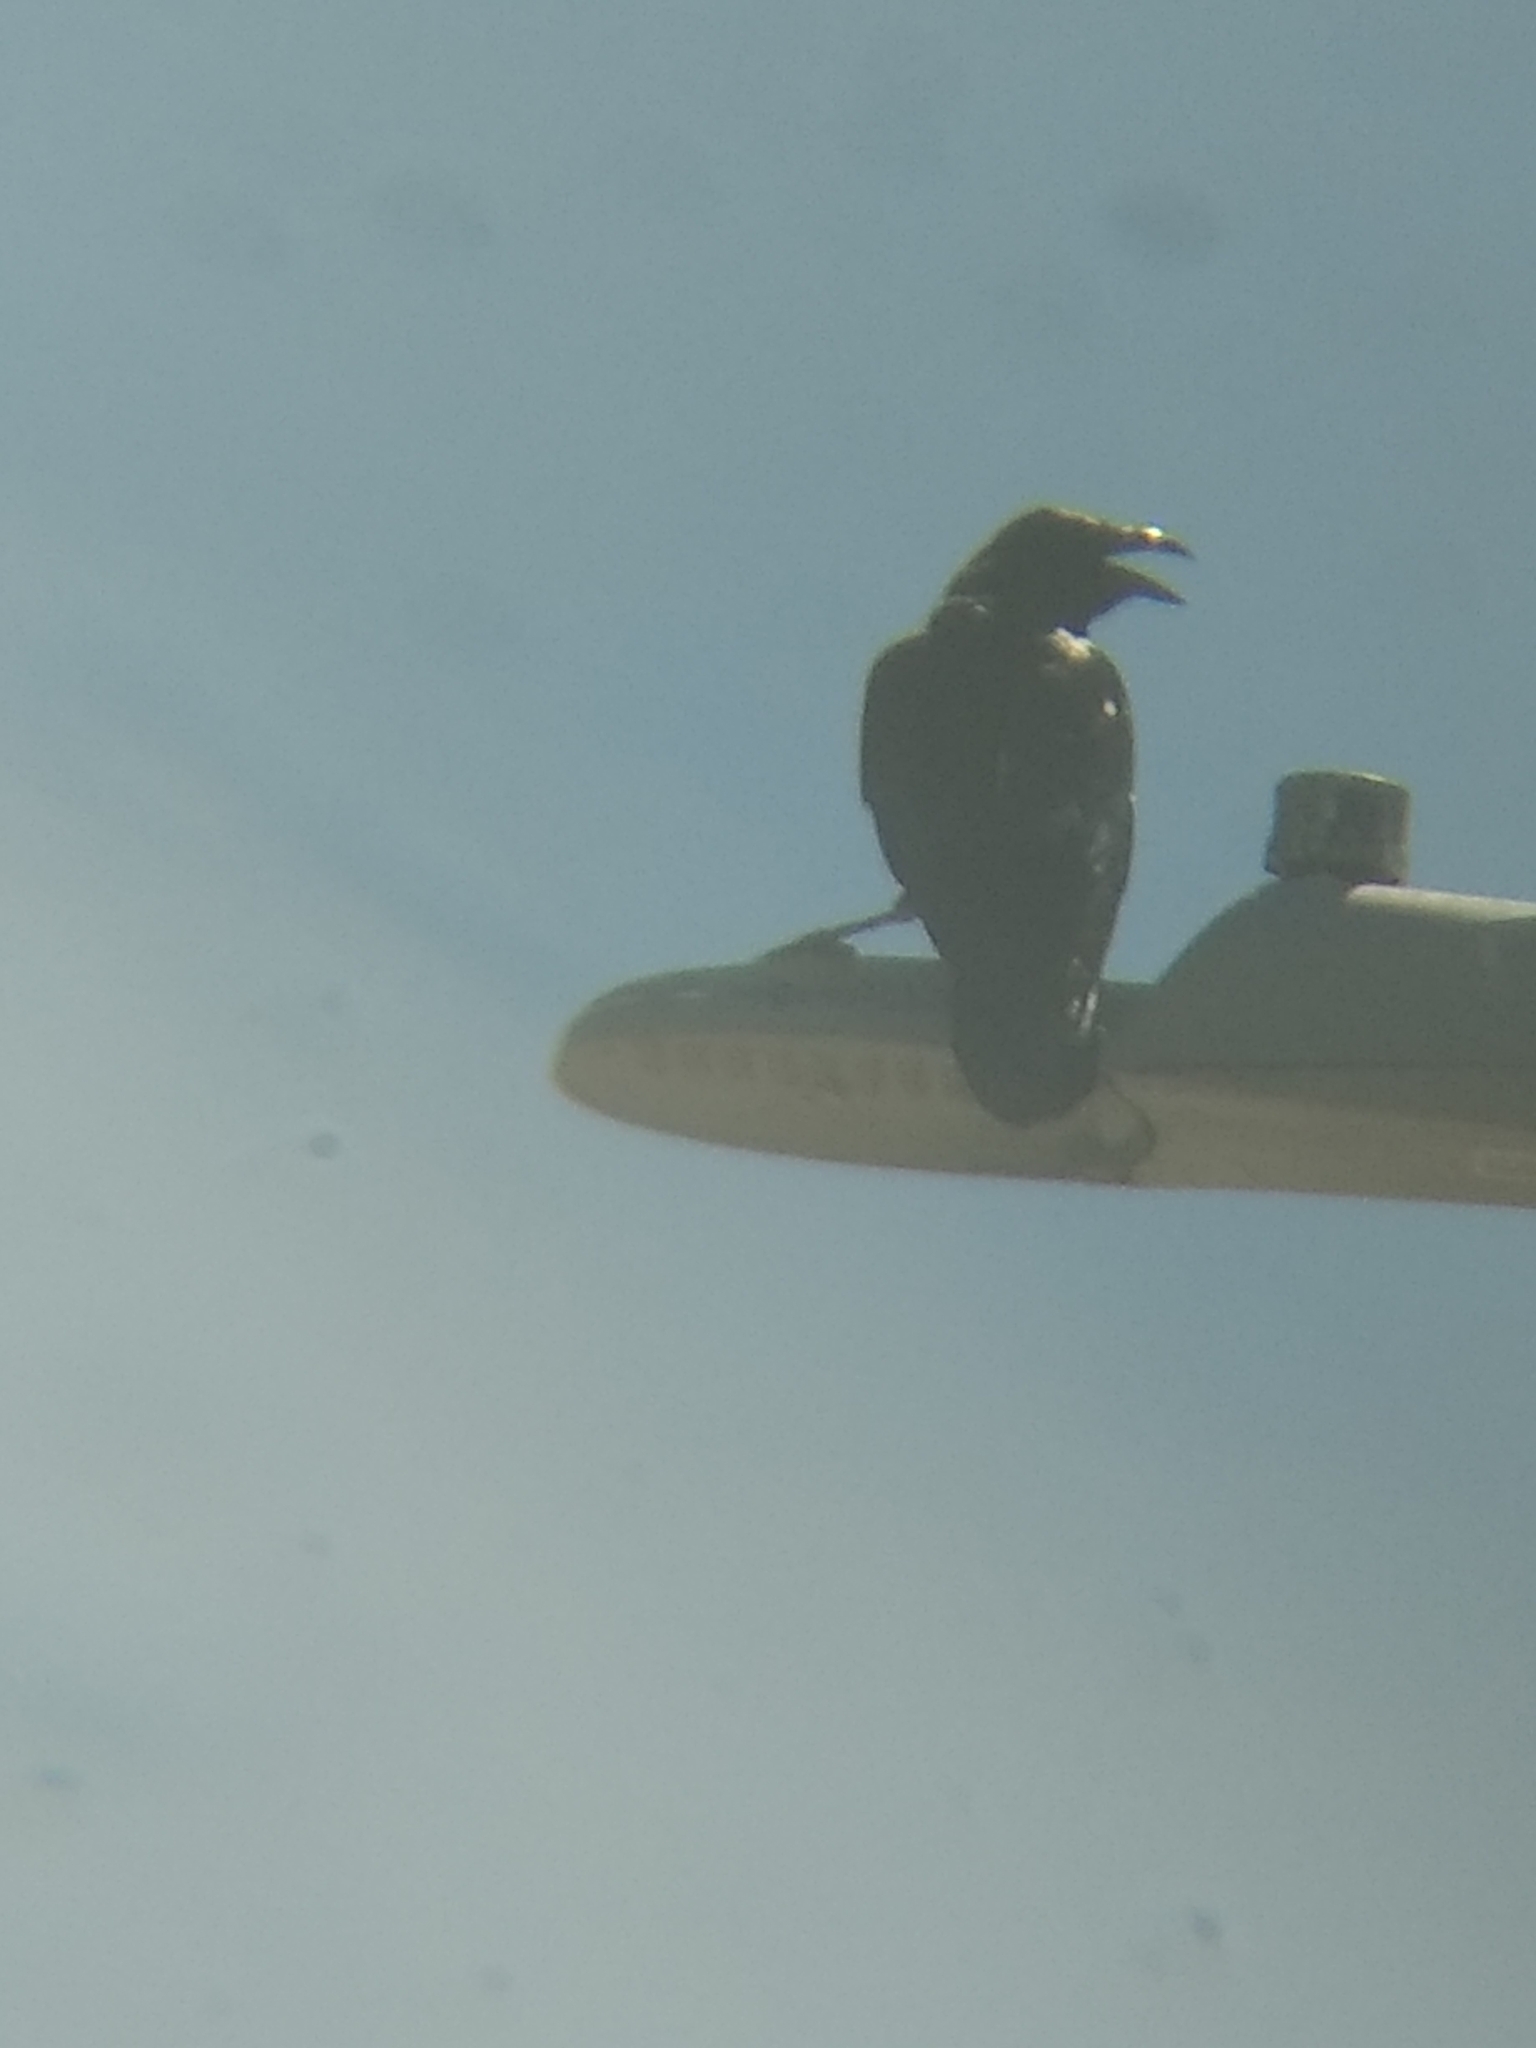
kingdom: Animalia
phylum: Chordata
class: Aves
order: Passeriformes
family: Corvidae
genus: Corvus
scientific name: Corvus corax
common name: Common raven
